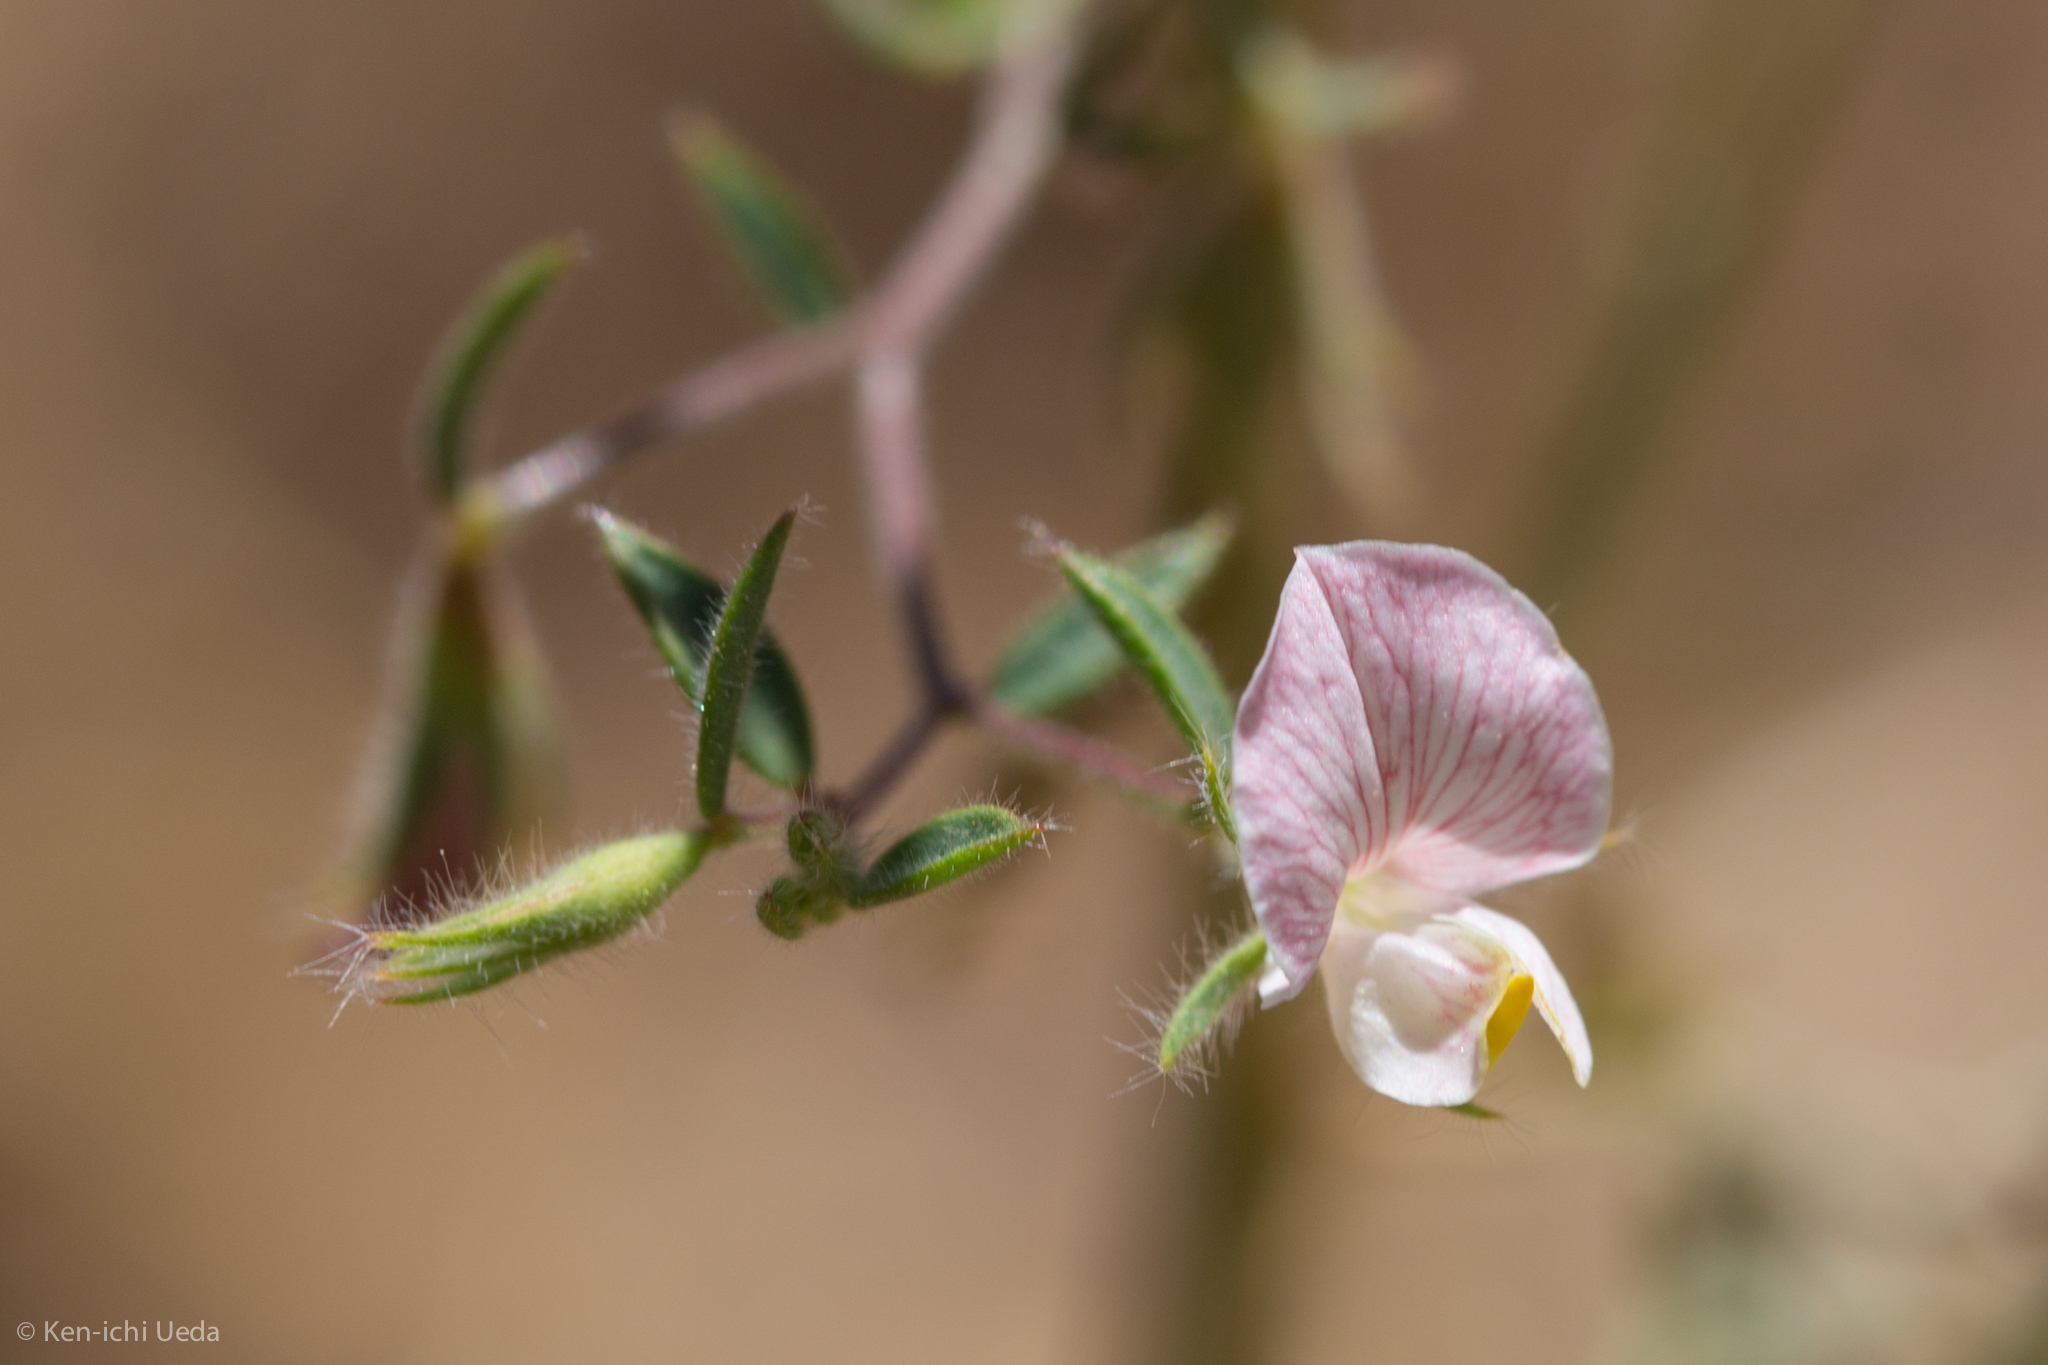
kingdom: Plantae
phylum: Tracheophyta
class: Magnoliopsida
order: Fabales
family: Fabaceae
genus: Acmispon
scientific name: Acmispon americanus
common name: American bird's-foot trefoil
